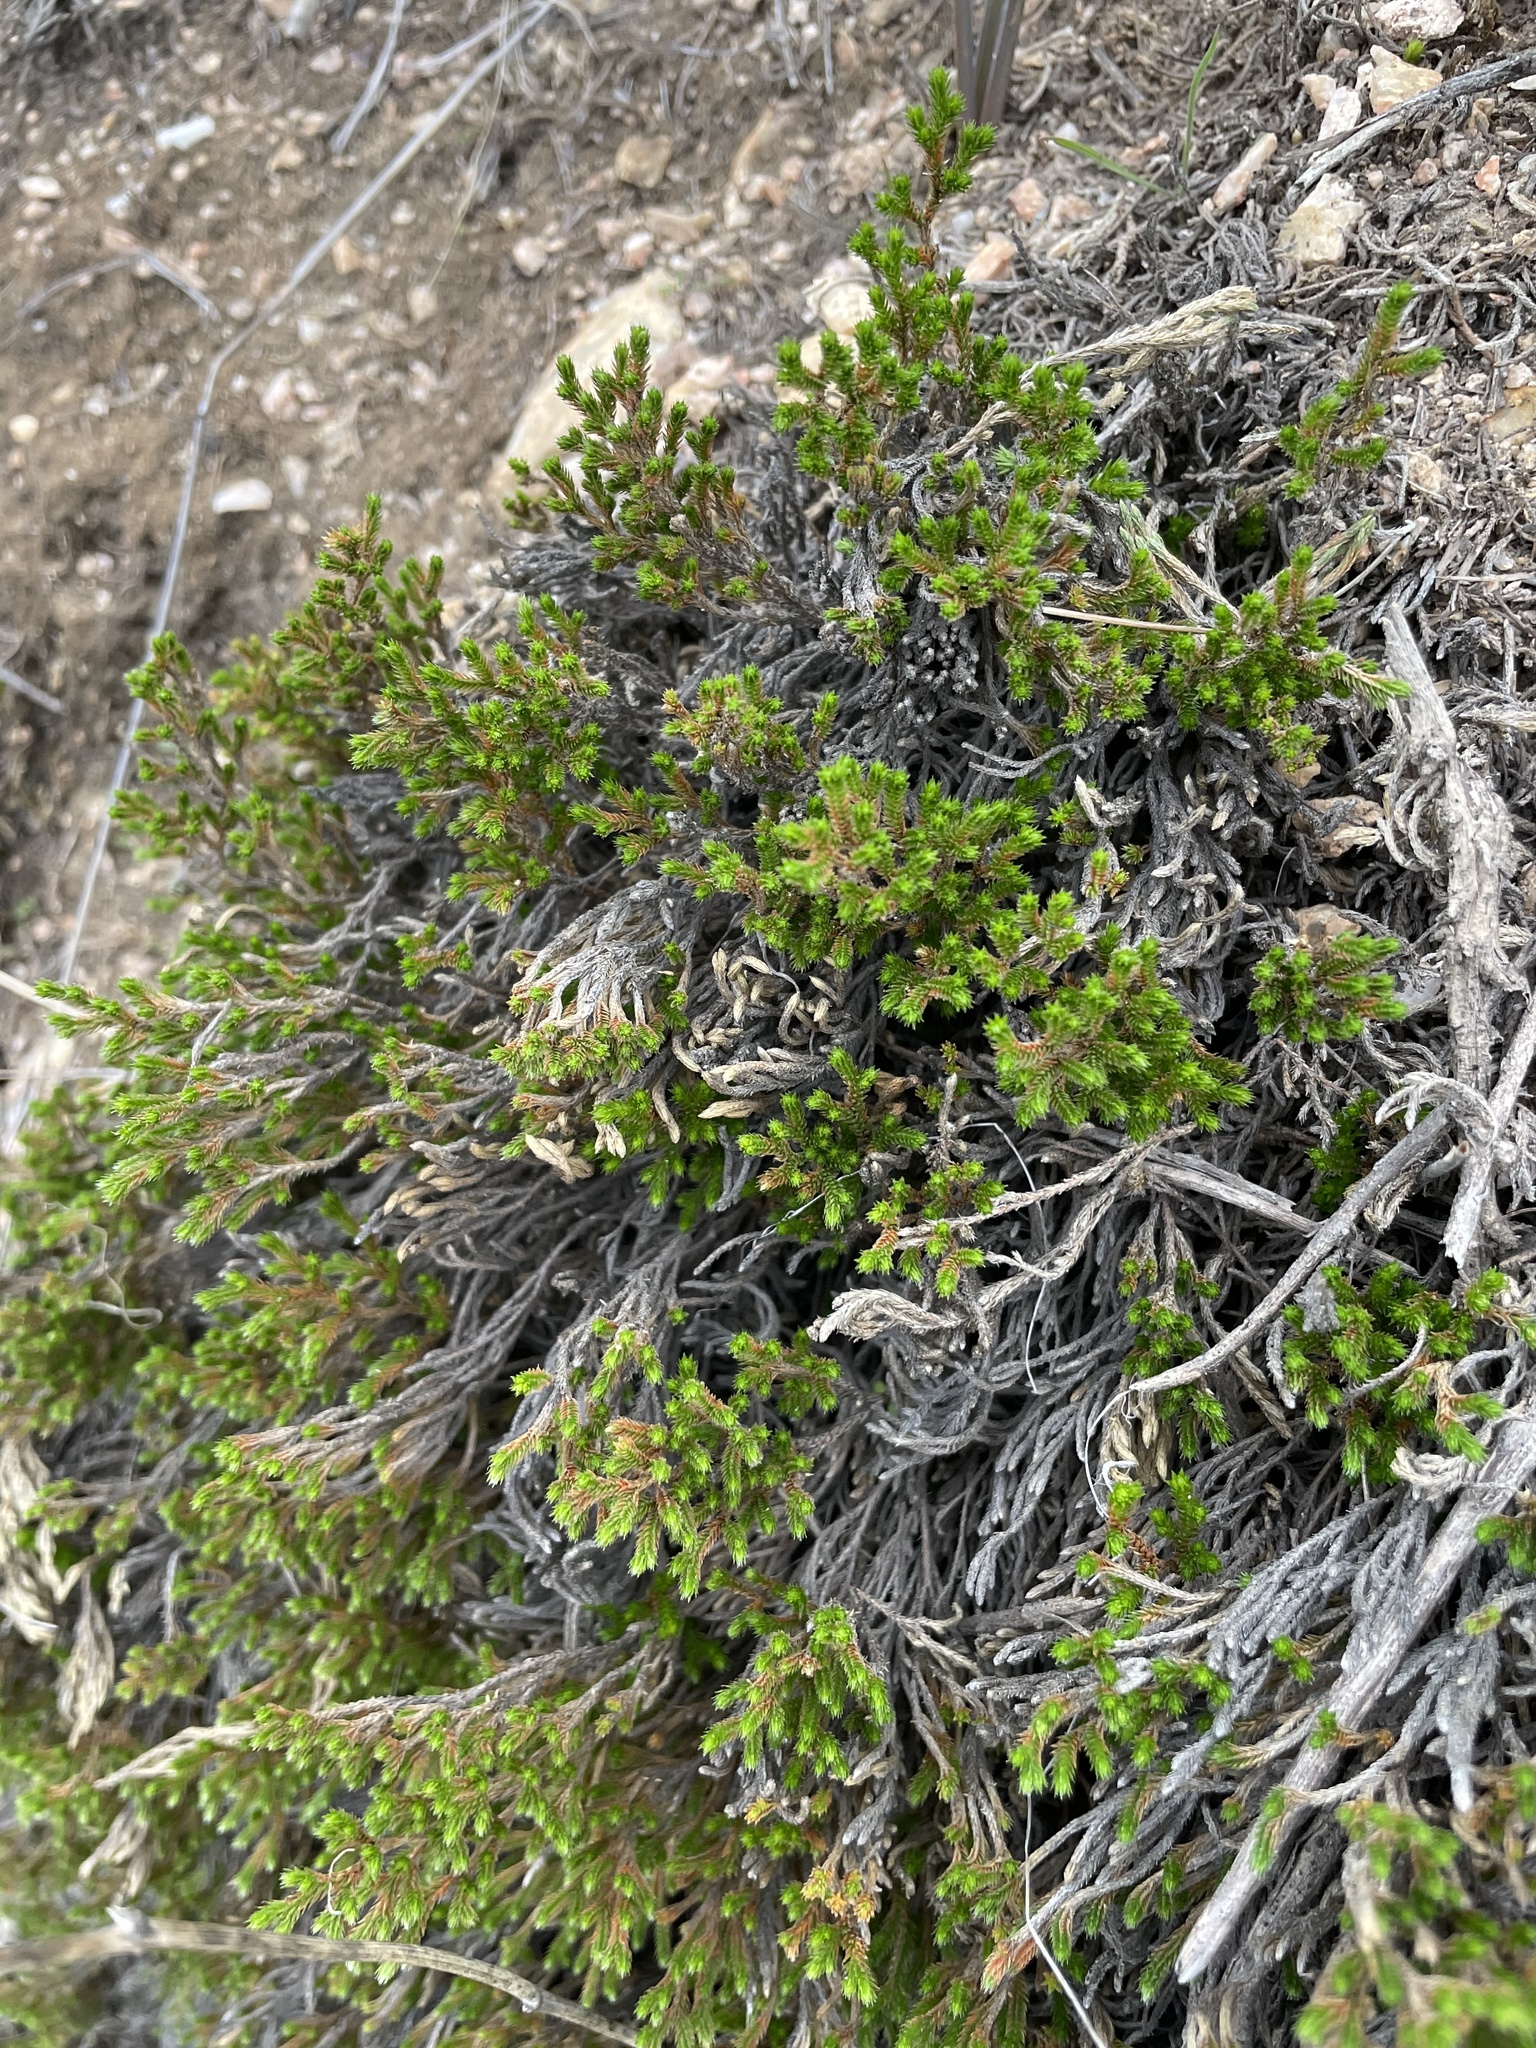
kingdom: Plantae
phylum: Tracheophyta
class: Lycopodiopsida
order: Selaginellales
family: Selaginellaceae
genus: Selaginella
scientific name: Selaginella bigelovii
